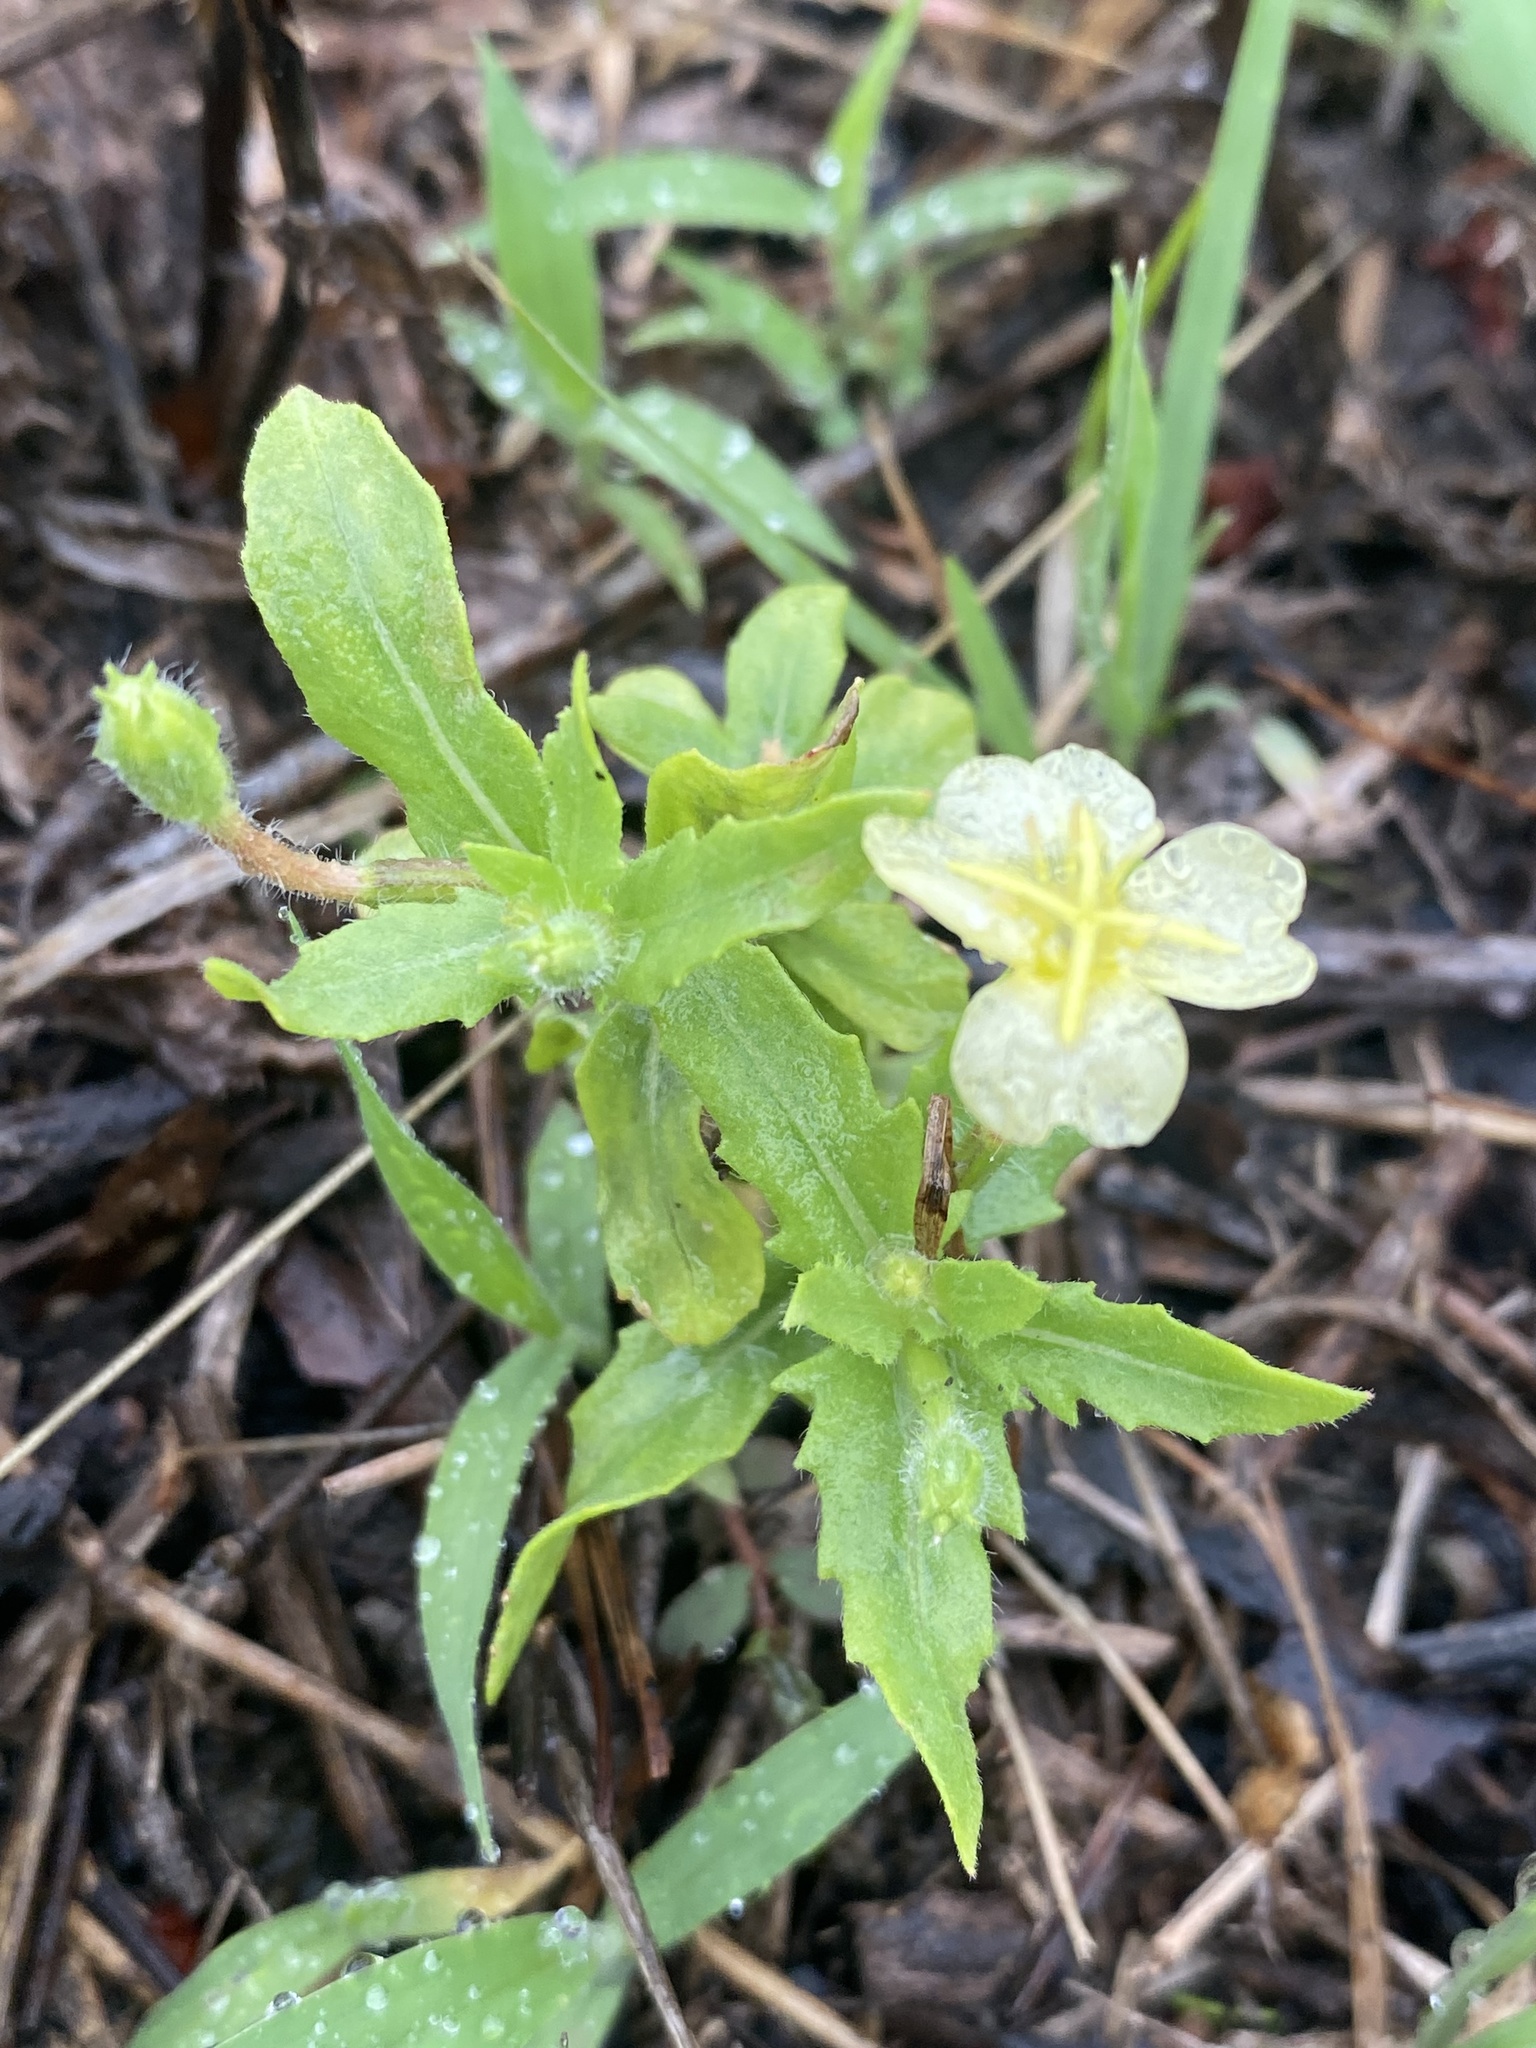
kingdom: Plantae
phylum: Tracheophyta
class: Magnoliopsida
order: Myrtales
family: Onagraceae
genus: Oenothera
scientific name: Oenothera laciniata
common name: Cut-leaved evening-primrose
